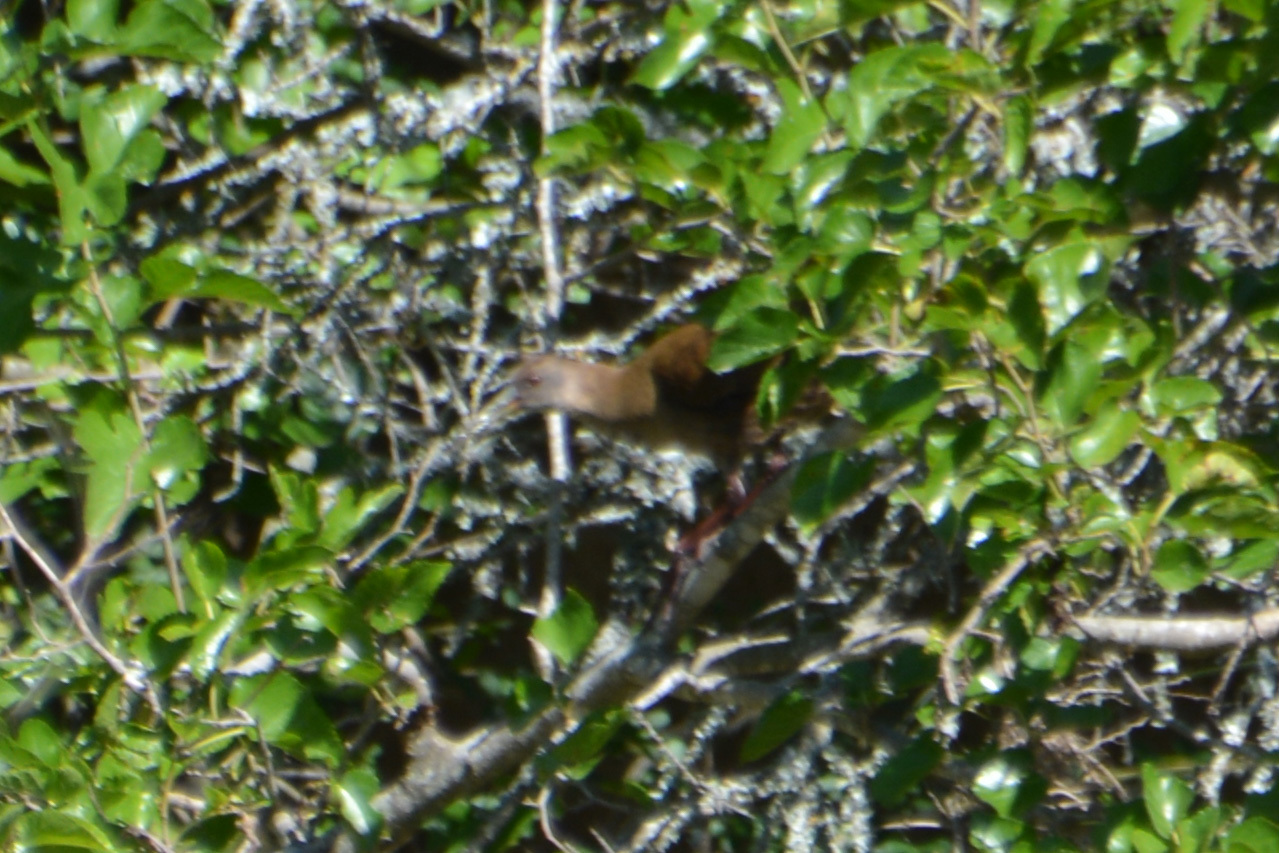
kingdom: Animalia
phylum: Chordata
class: Aves
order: Gruiformes
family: Rallidae
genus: Pardirallus
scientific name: Pardirallus sanguinolentus
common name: Plumbeous rail
